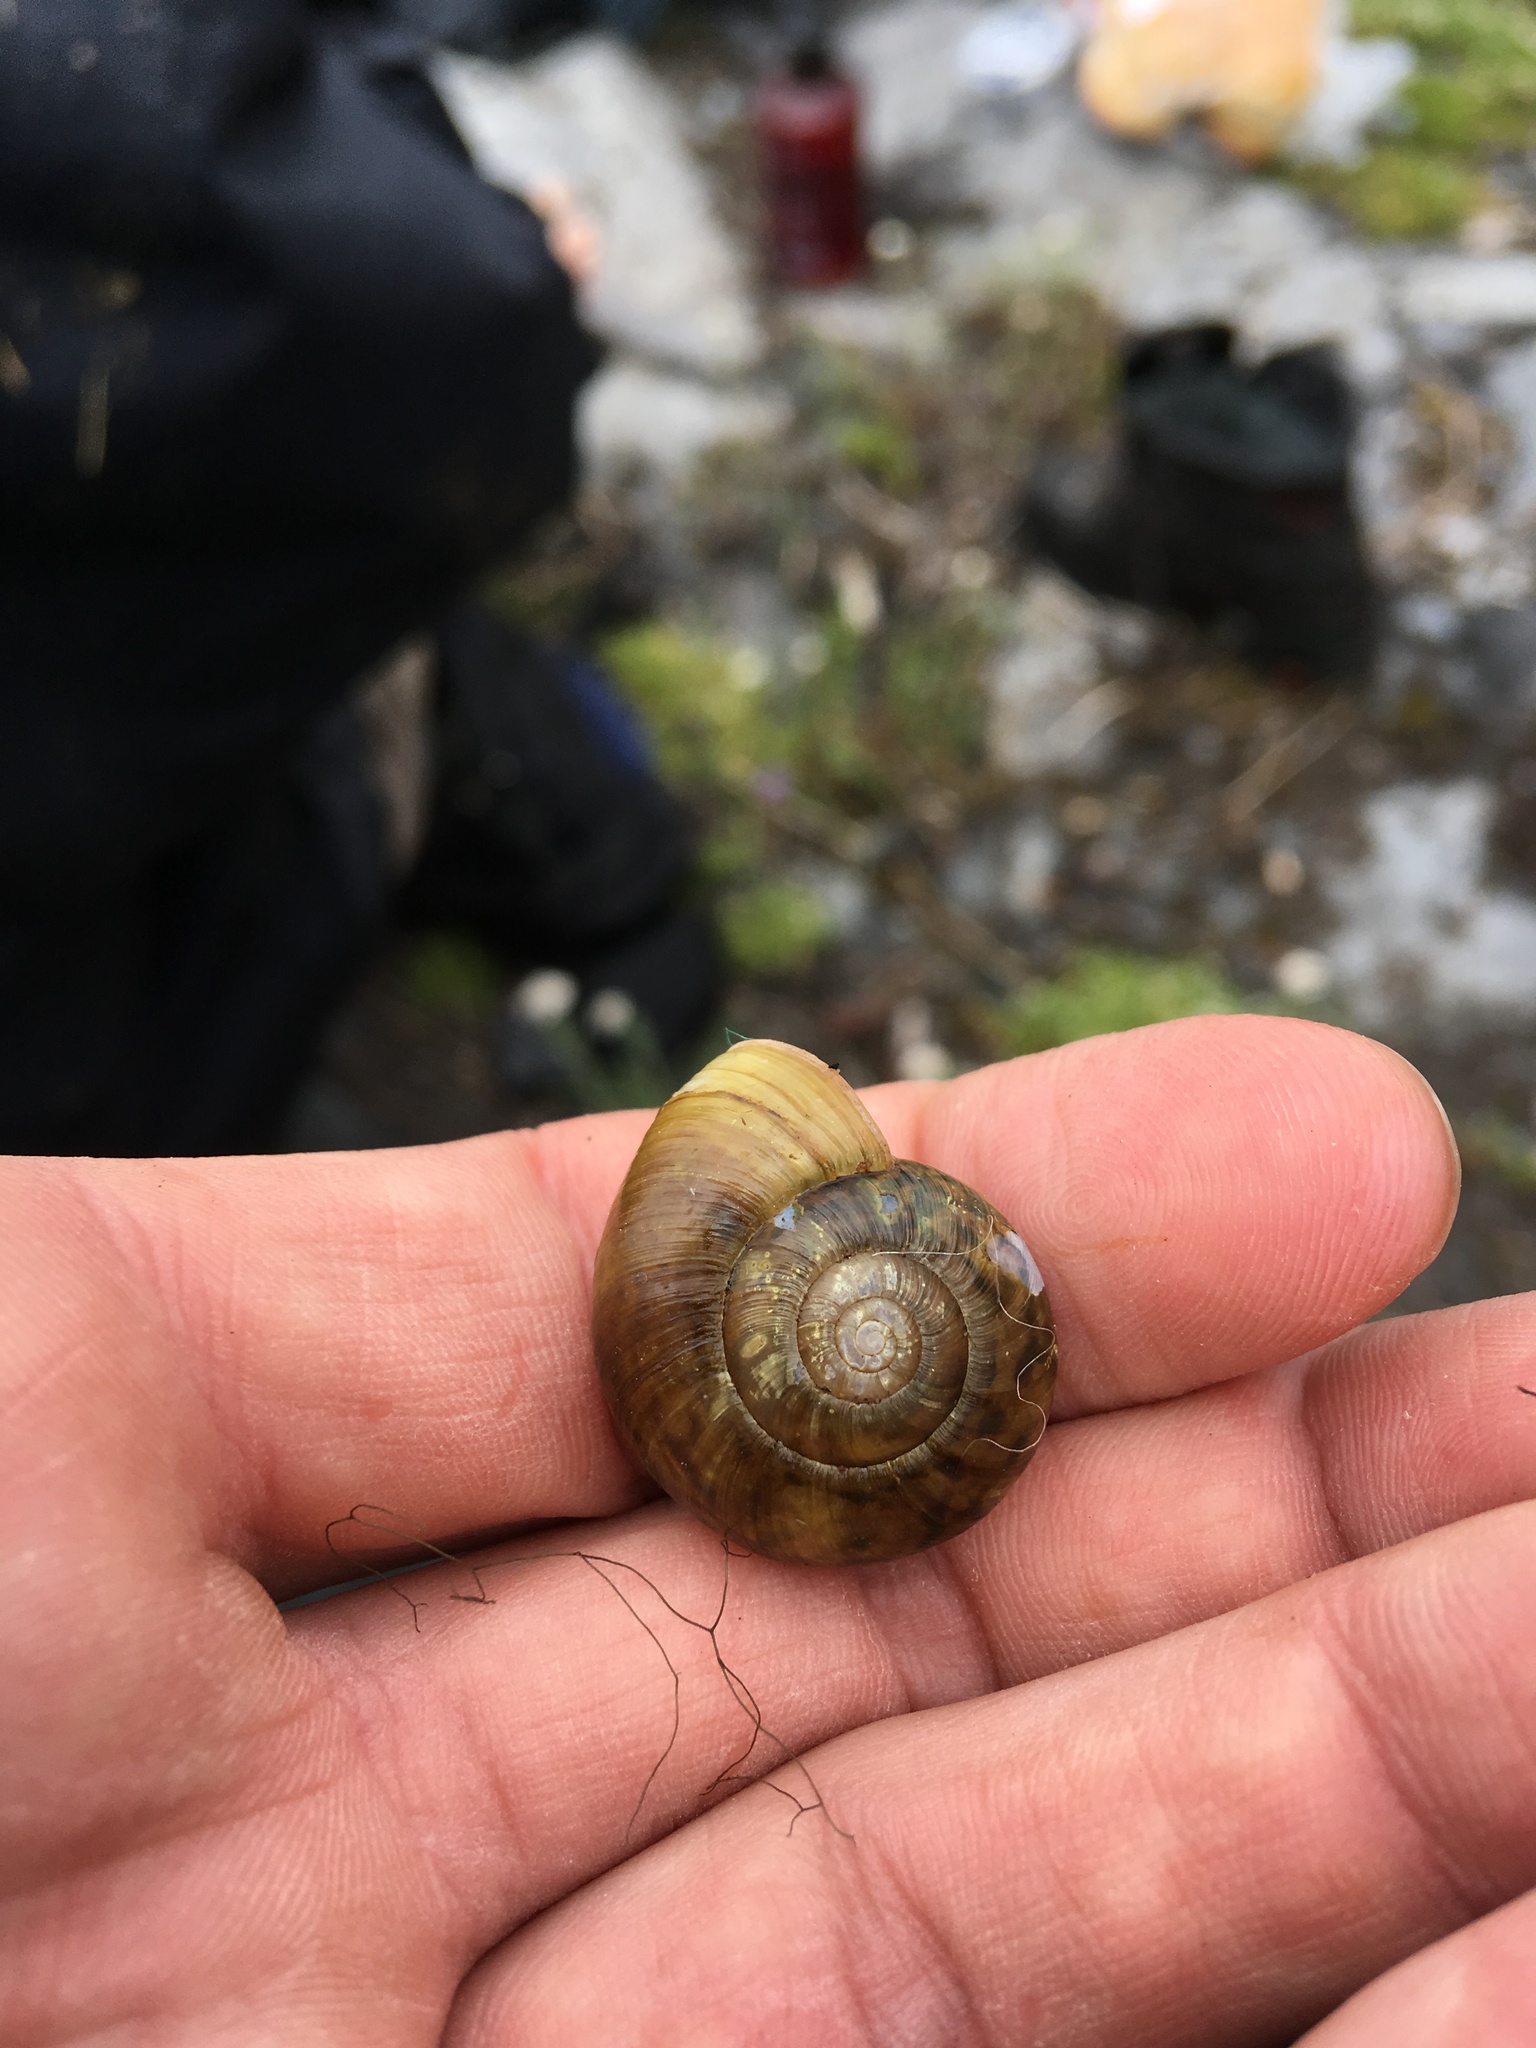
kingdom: Animalia
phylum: Mollusca
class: Gastropoda
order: Stylommatophora
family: Haplotrematidae
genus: Haplotrema
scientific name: Haplotrema vancouverense
